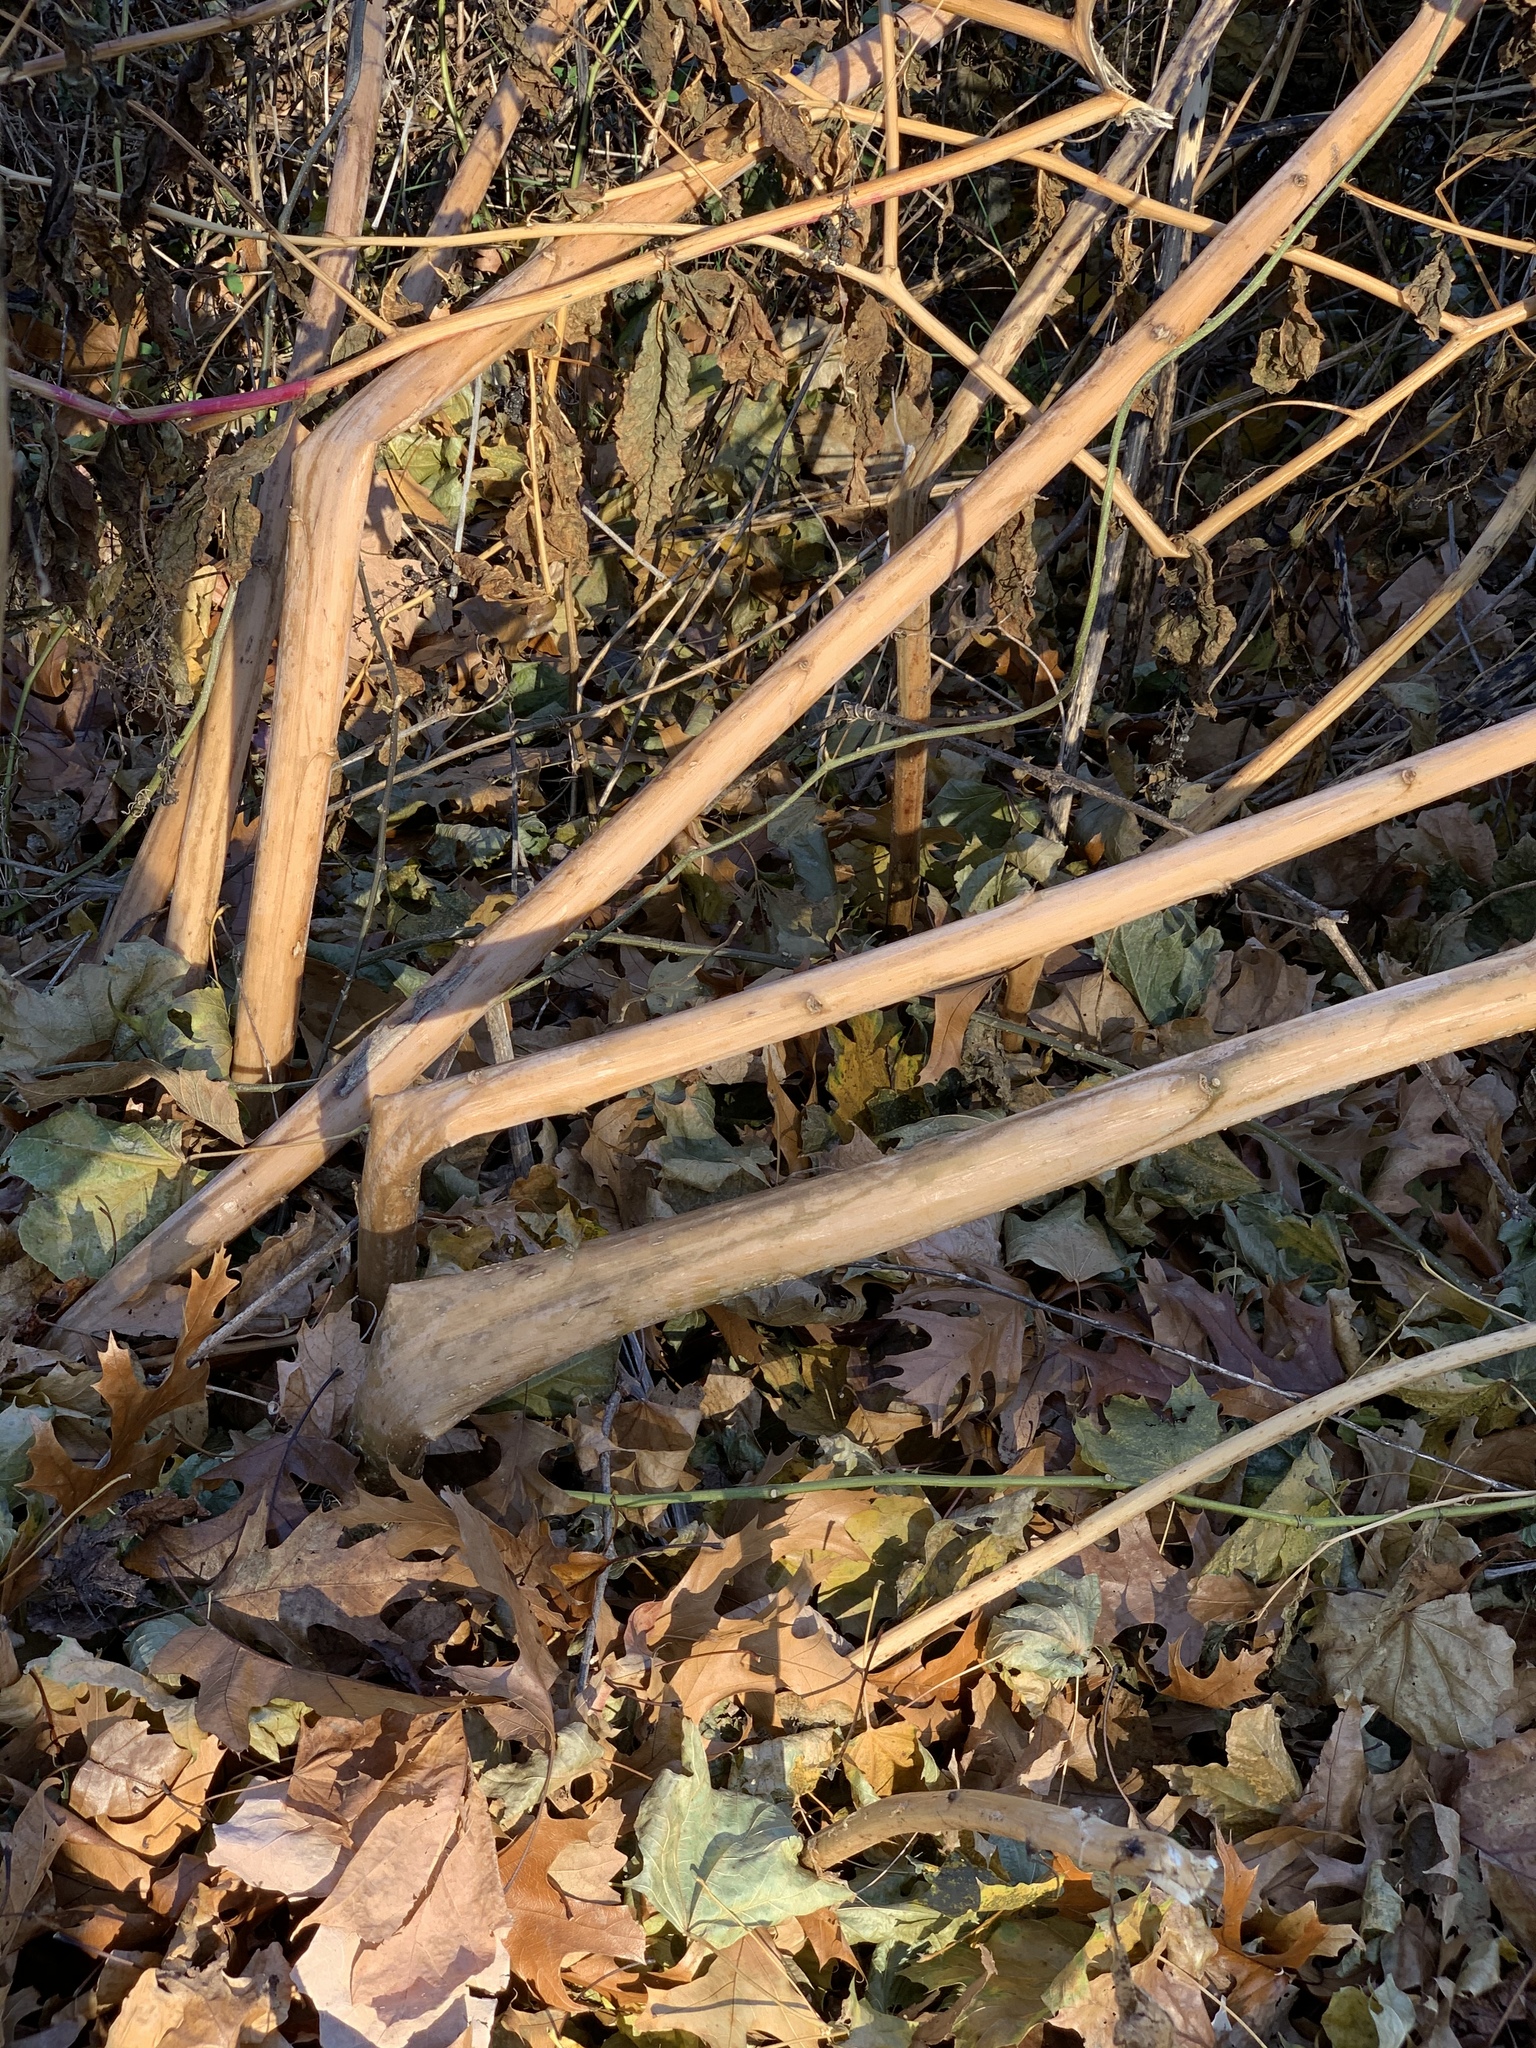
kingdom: Plantae
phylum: Tracheophyta
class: Magnoliopsida
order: Caryophyllales
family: Phytolaccaceae
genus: Phytolacca
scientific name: Phytolacca americana
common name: American pokeweed
